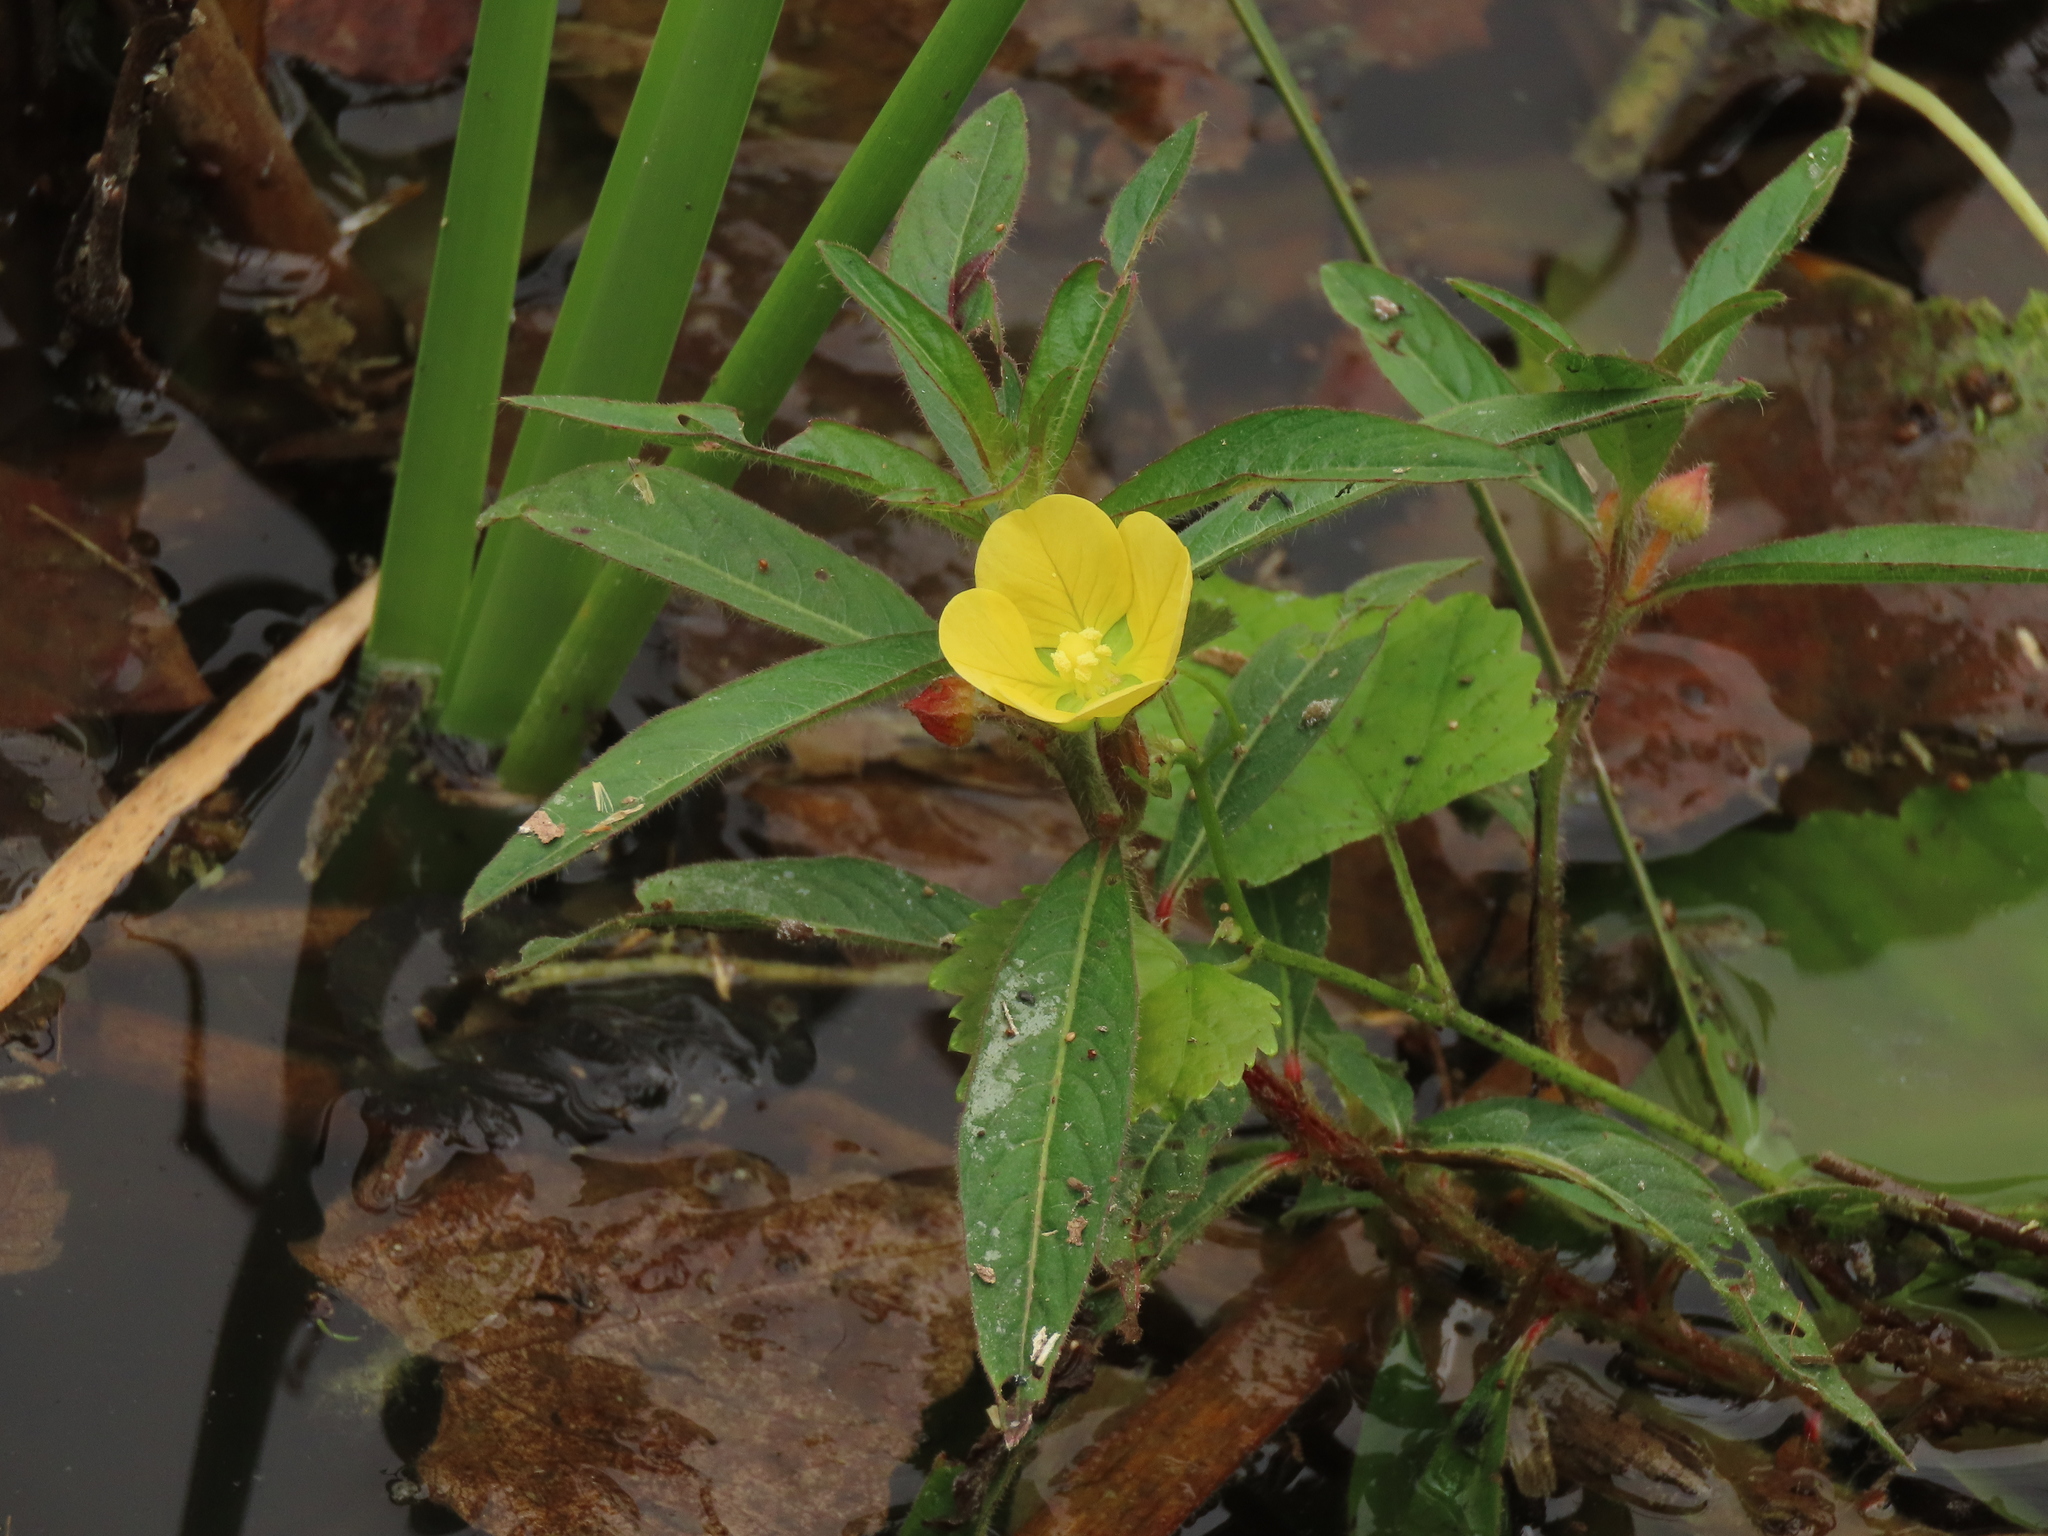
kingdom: Plantae
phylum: Tracheophyta
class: Magnoliopsida
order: Myrtales
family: Onagraceae
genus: Ludwigia
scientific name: Ludwigia octovalvis
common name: Water-primrose
